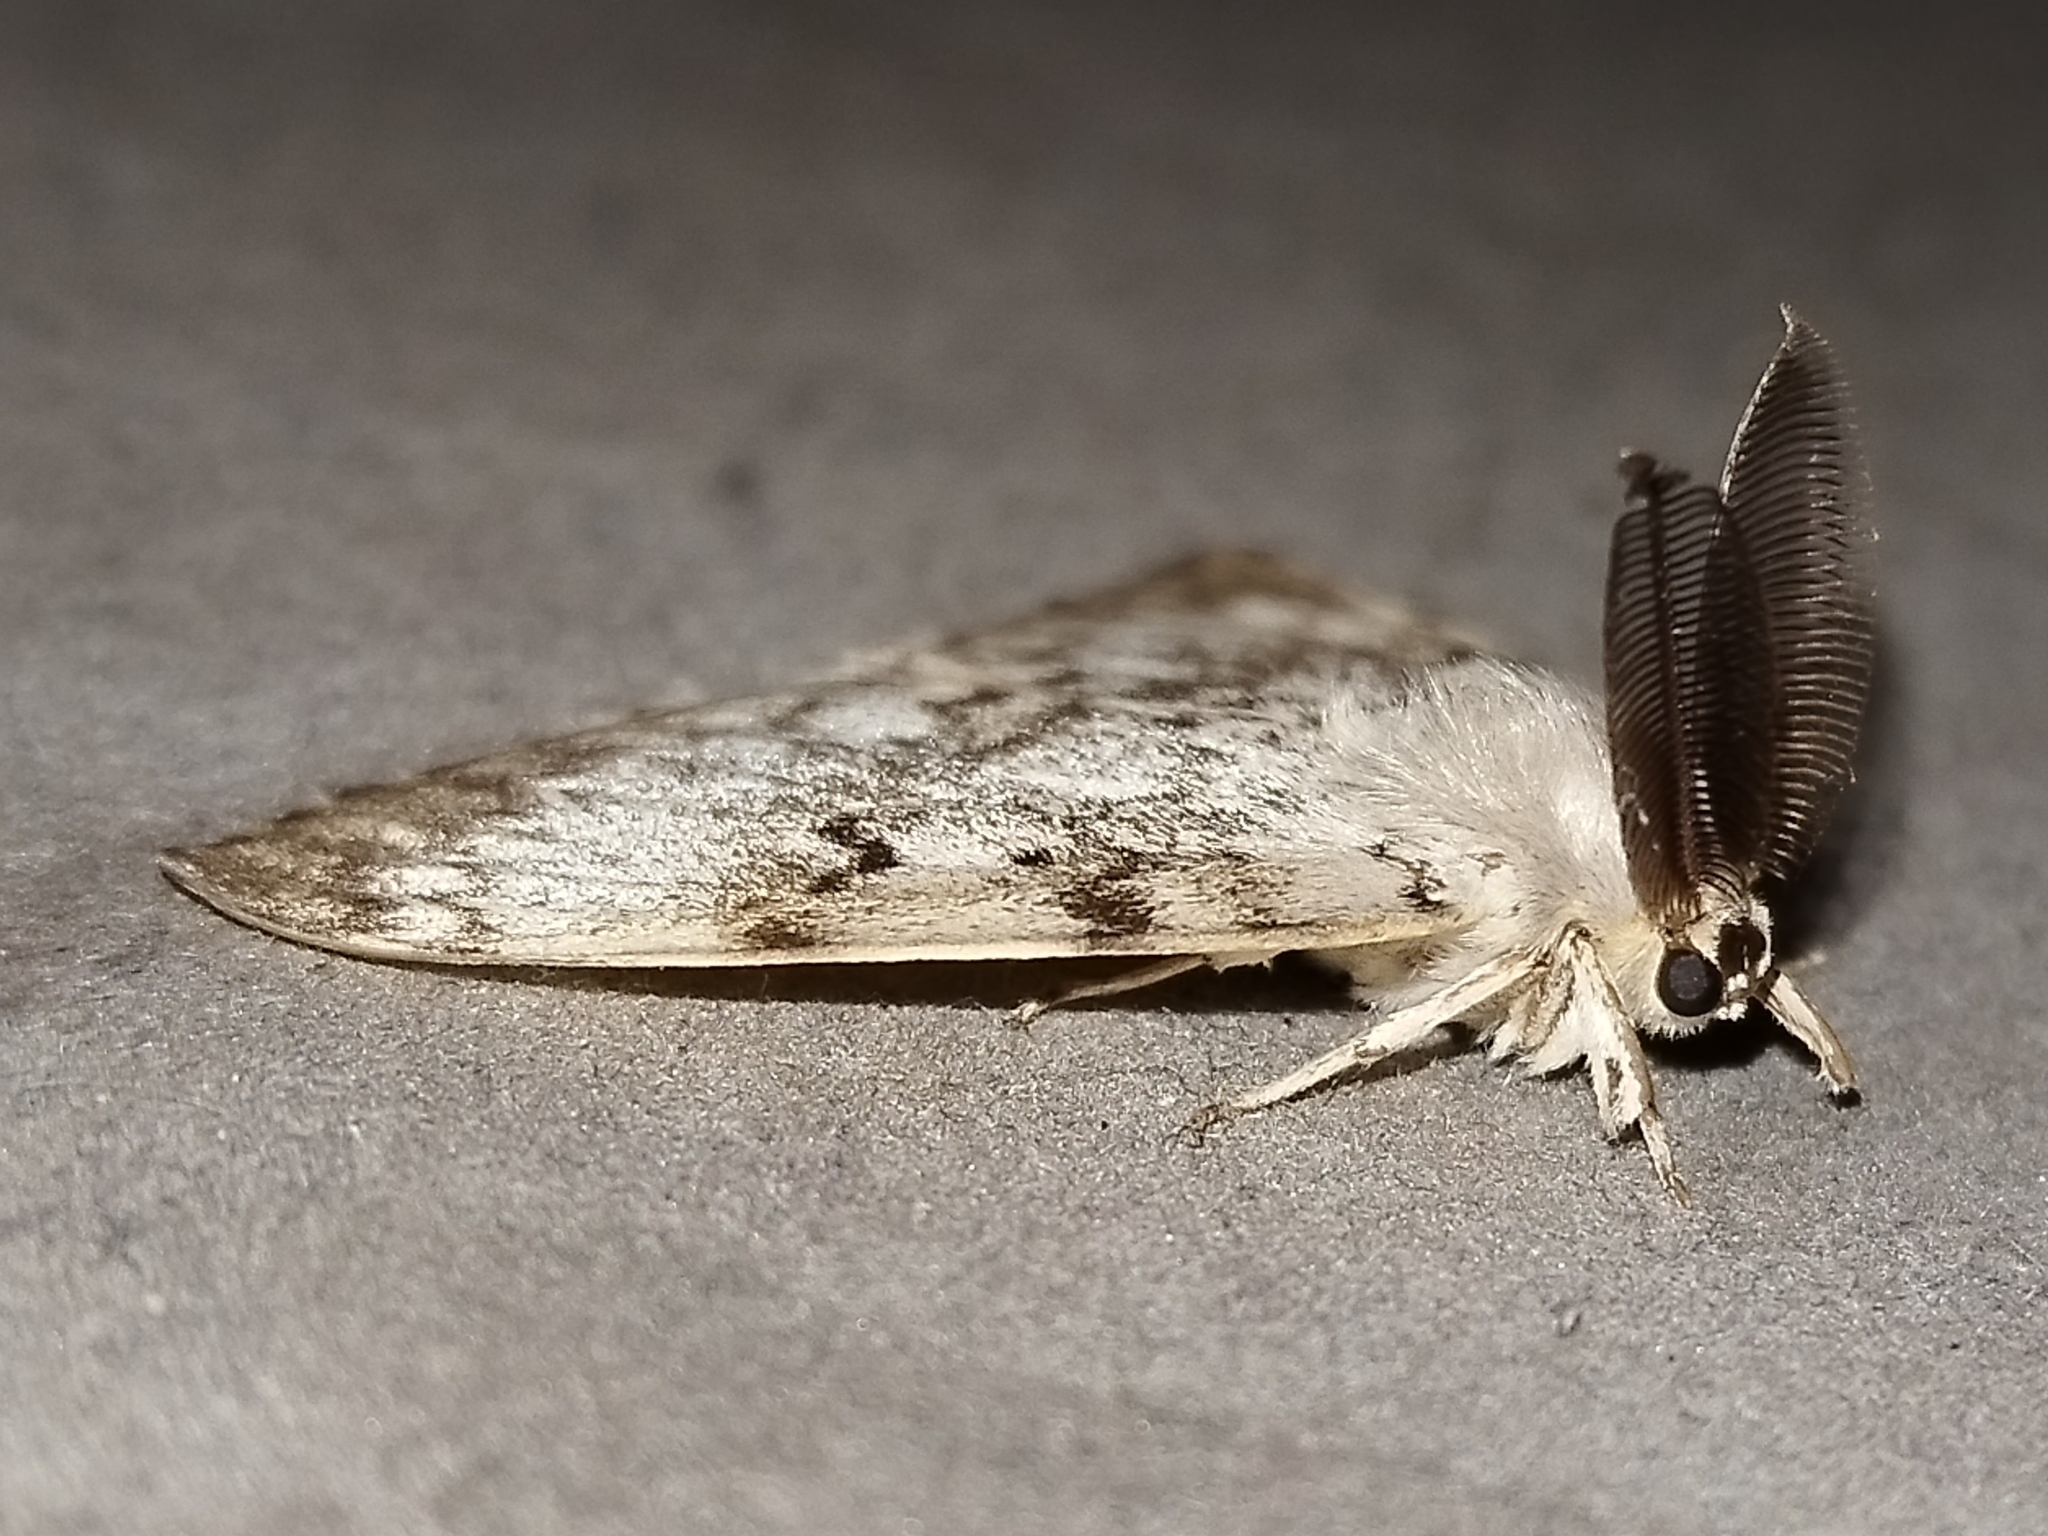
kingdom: Animalia
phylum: Arthropoda
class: Insecta
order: Lepidoptera
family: Erebidae
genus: Lymantria
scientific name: Lymantria dispar
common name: Gypsy moth
